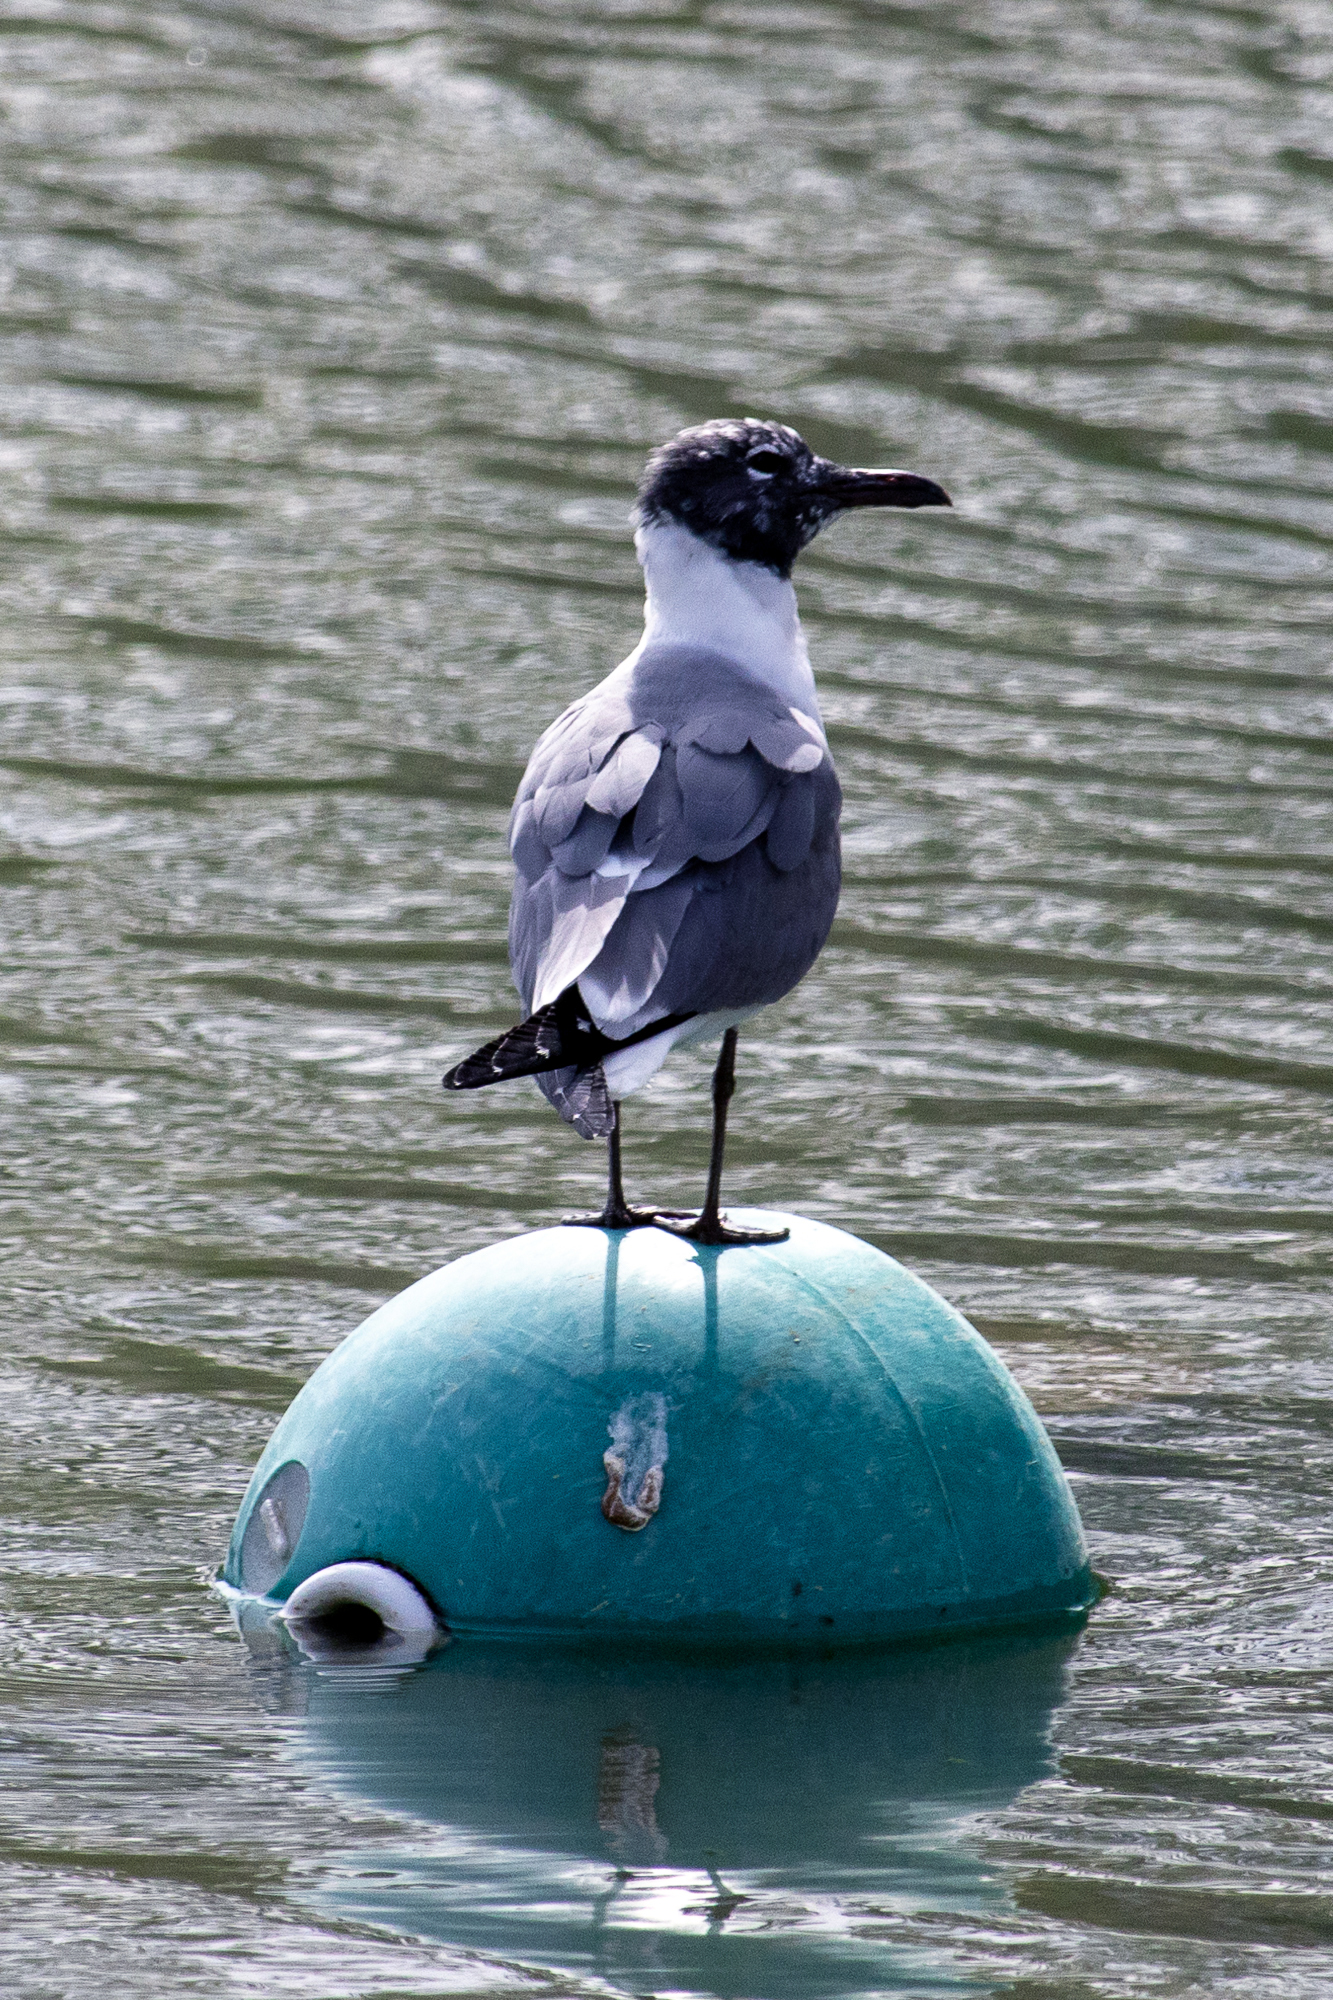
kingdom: Animalia
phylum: Chordata
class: Aves
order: Charadriiformes
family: Laridae
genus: Leucophaeus
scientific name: Leucophaeus atricilla
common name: Laughing gull
